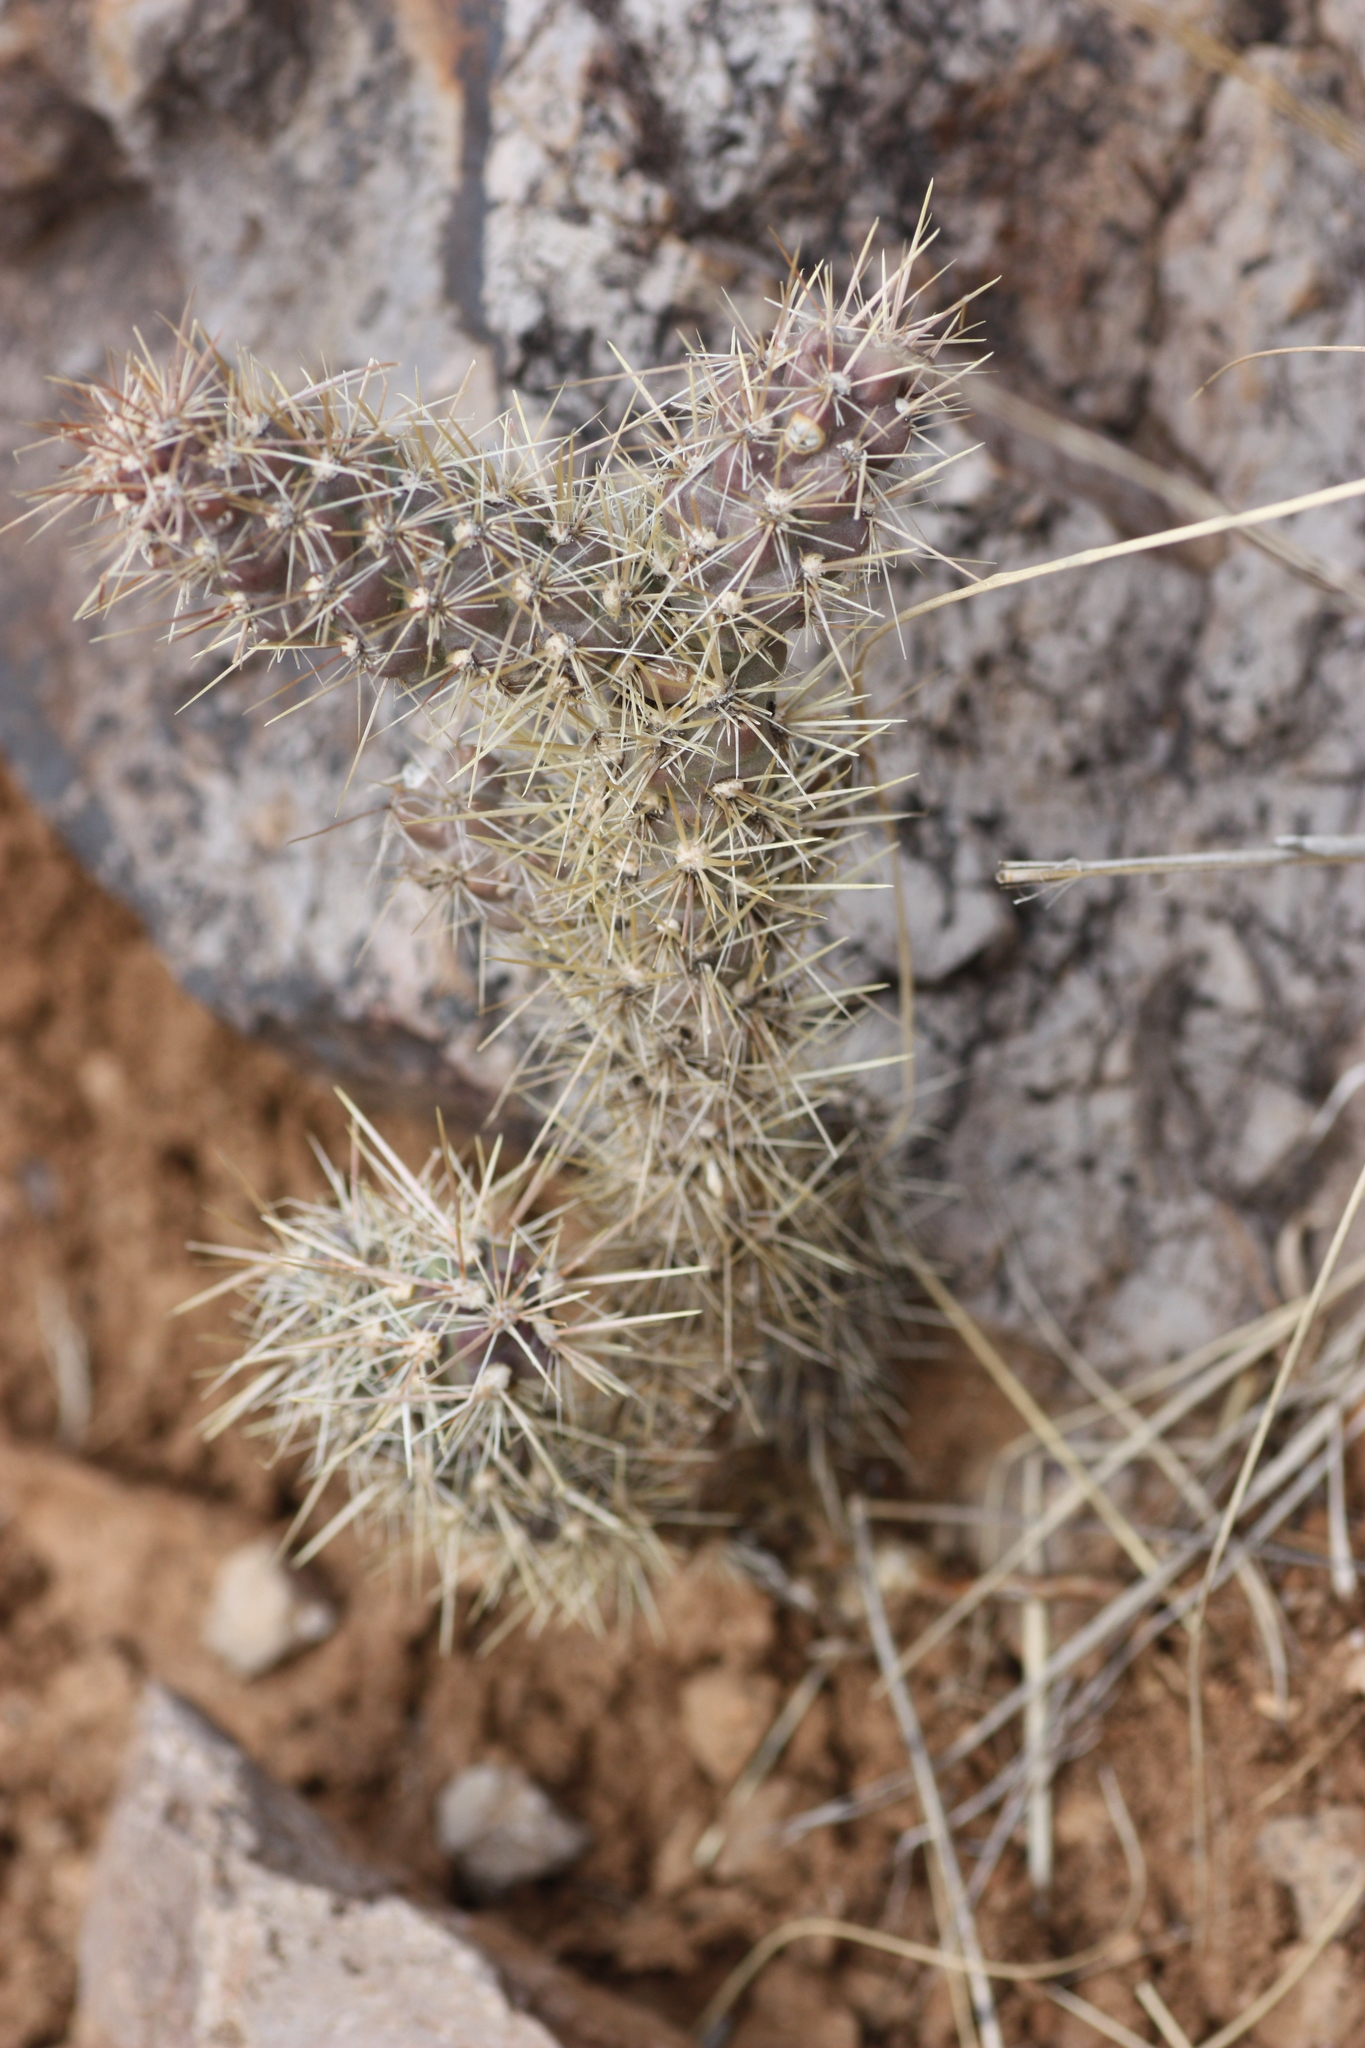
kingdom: Plantae
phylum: Tracheophyta
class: Magnoliopsida
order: Caryophyllales
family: Cactaceae
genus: Cylindropuntia
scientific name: Cylindropuntia imbricata
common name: Candelabrum cactus
